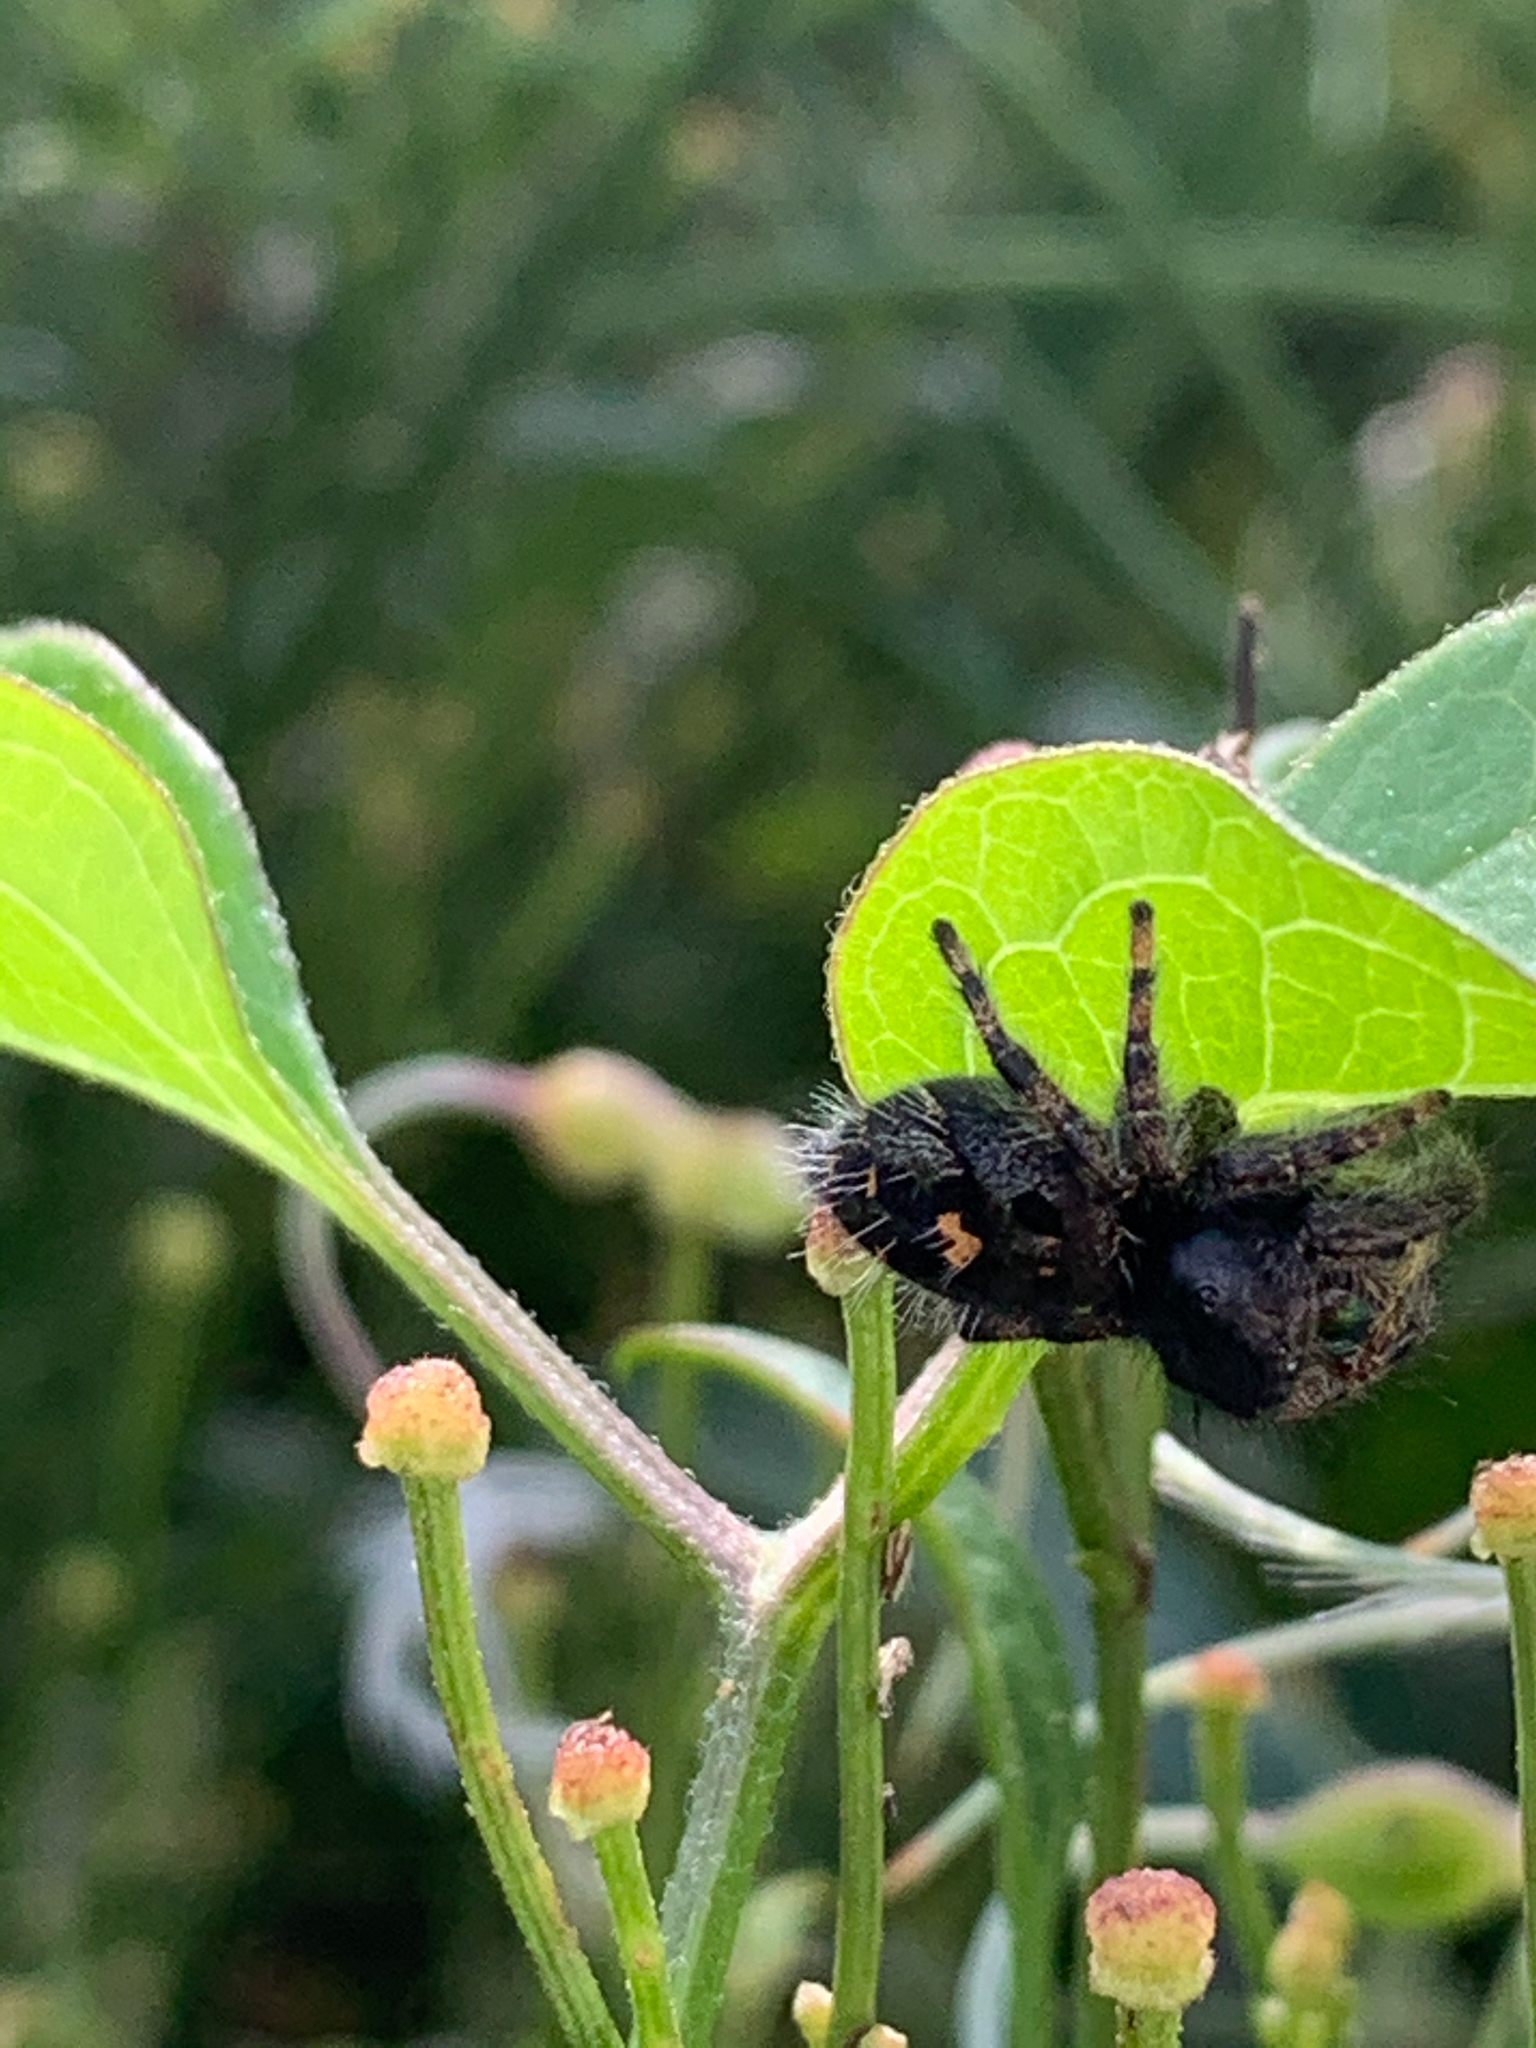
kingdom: Animalia
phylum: Arthropoda
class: Arachnida
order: Araneae
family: Salticidae
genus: Phidippus
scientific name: Phidippus audax
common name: Bold jumper
